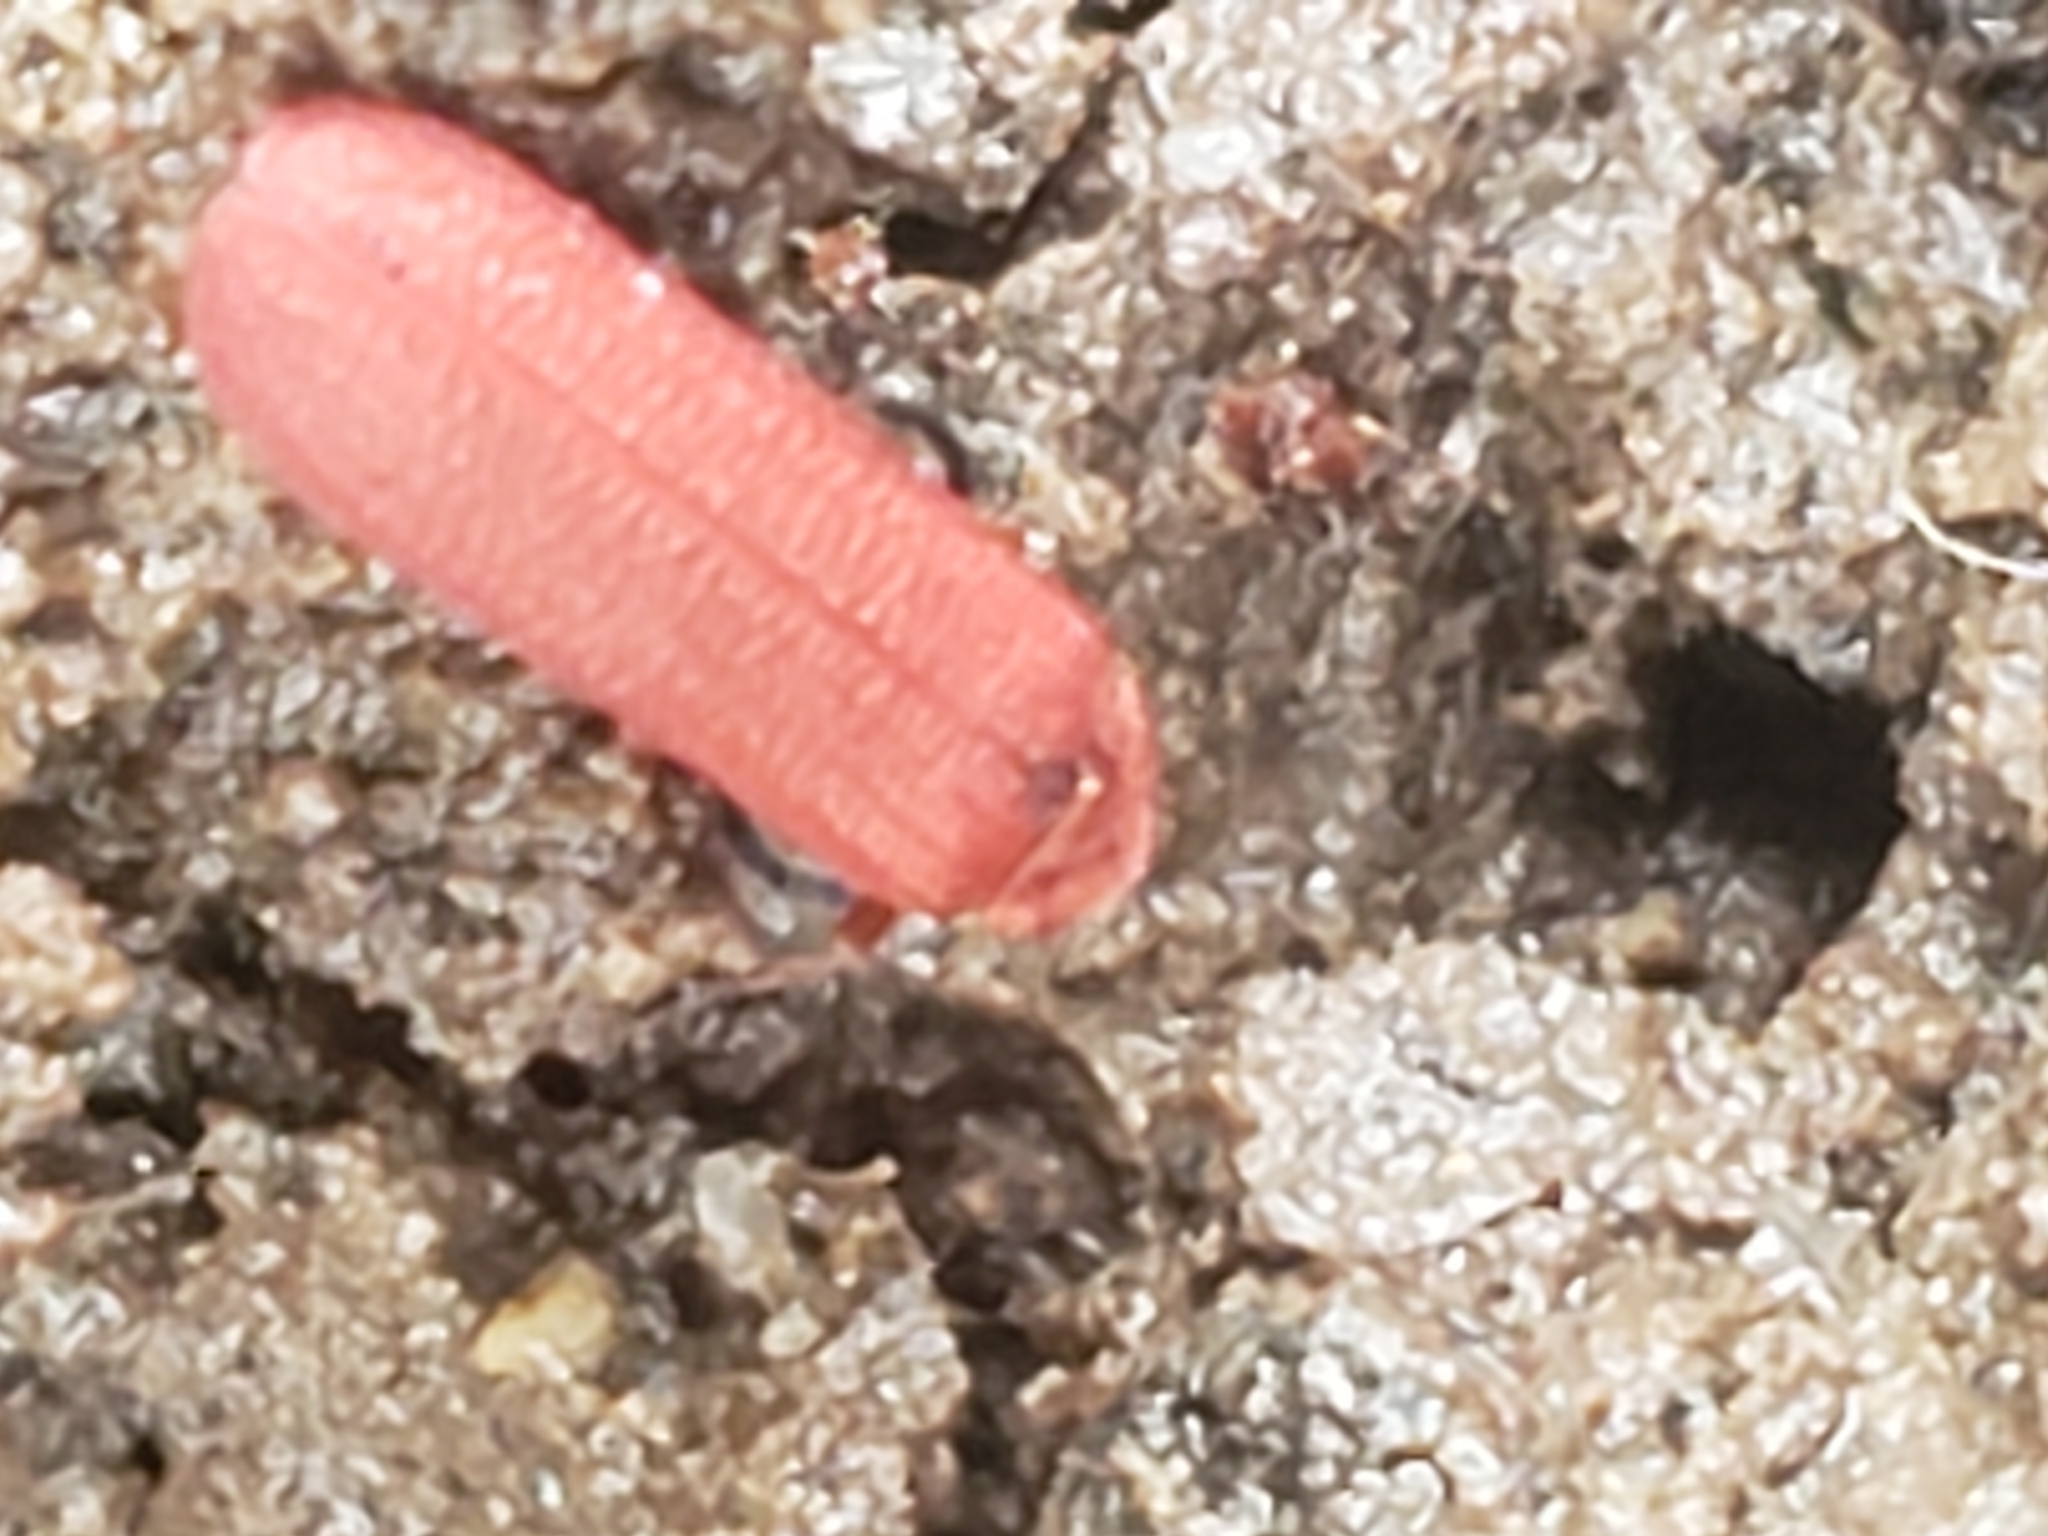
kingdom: Animalia
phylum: Arthropoda
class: Insecta
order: Coleoptera
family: Lycidae
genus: Punicealis
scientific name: Punicealis
